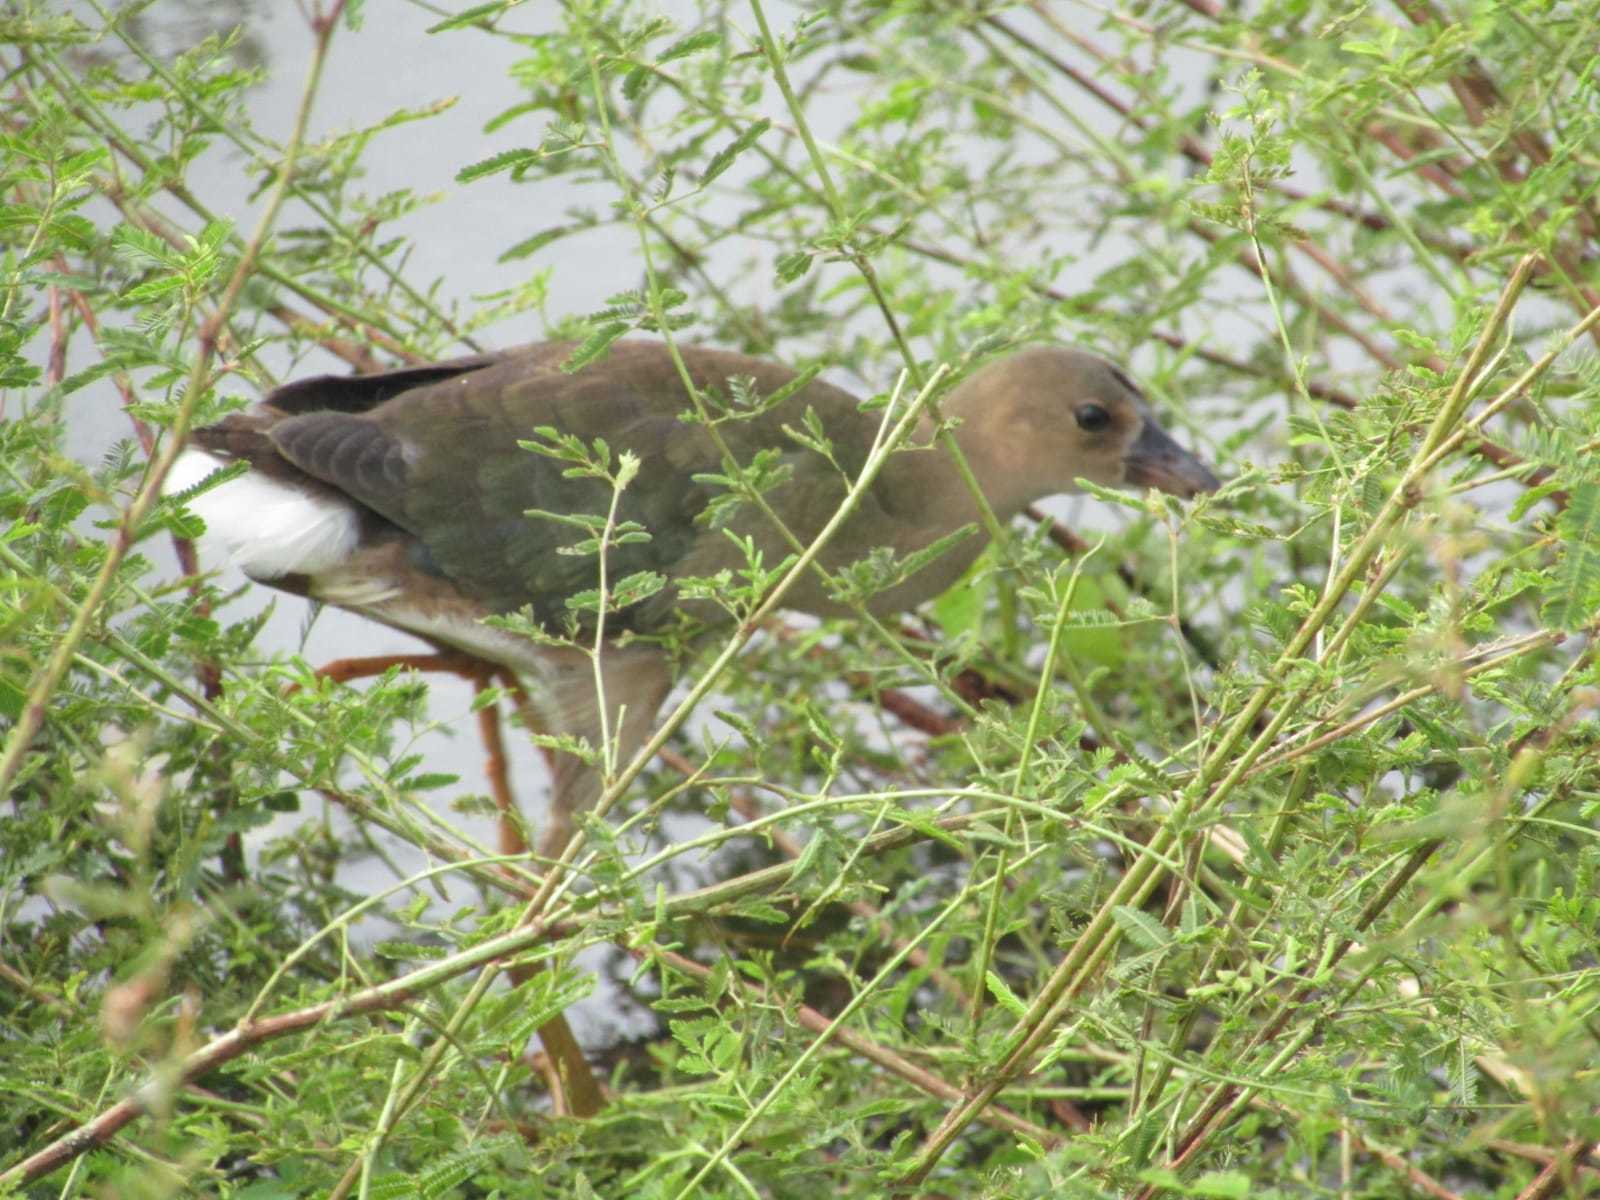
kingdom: Animalia
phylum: Chordata
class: Aves
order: Gruiformes
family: Rallidae
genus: Porphyrio
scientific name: Porphyrio martinica
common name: Purple gallinule
